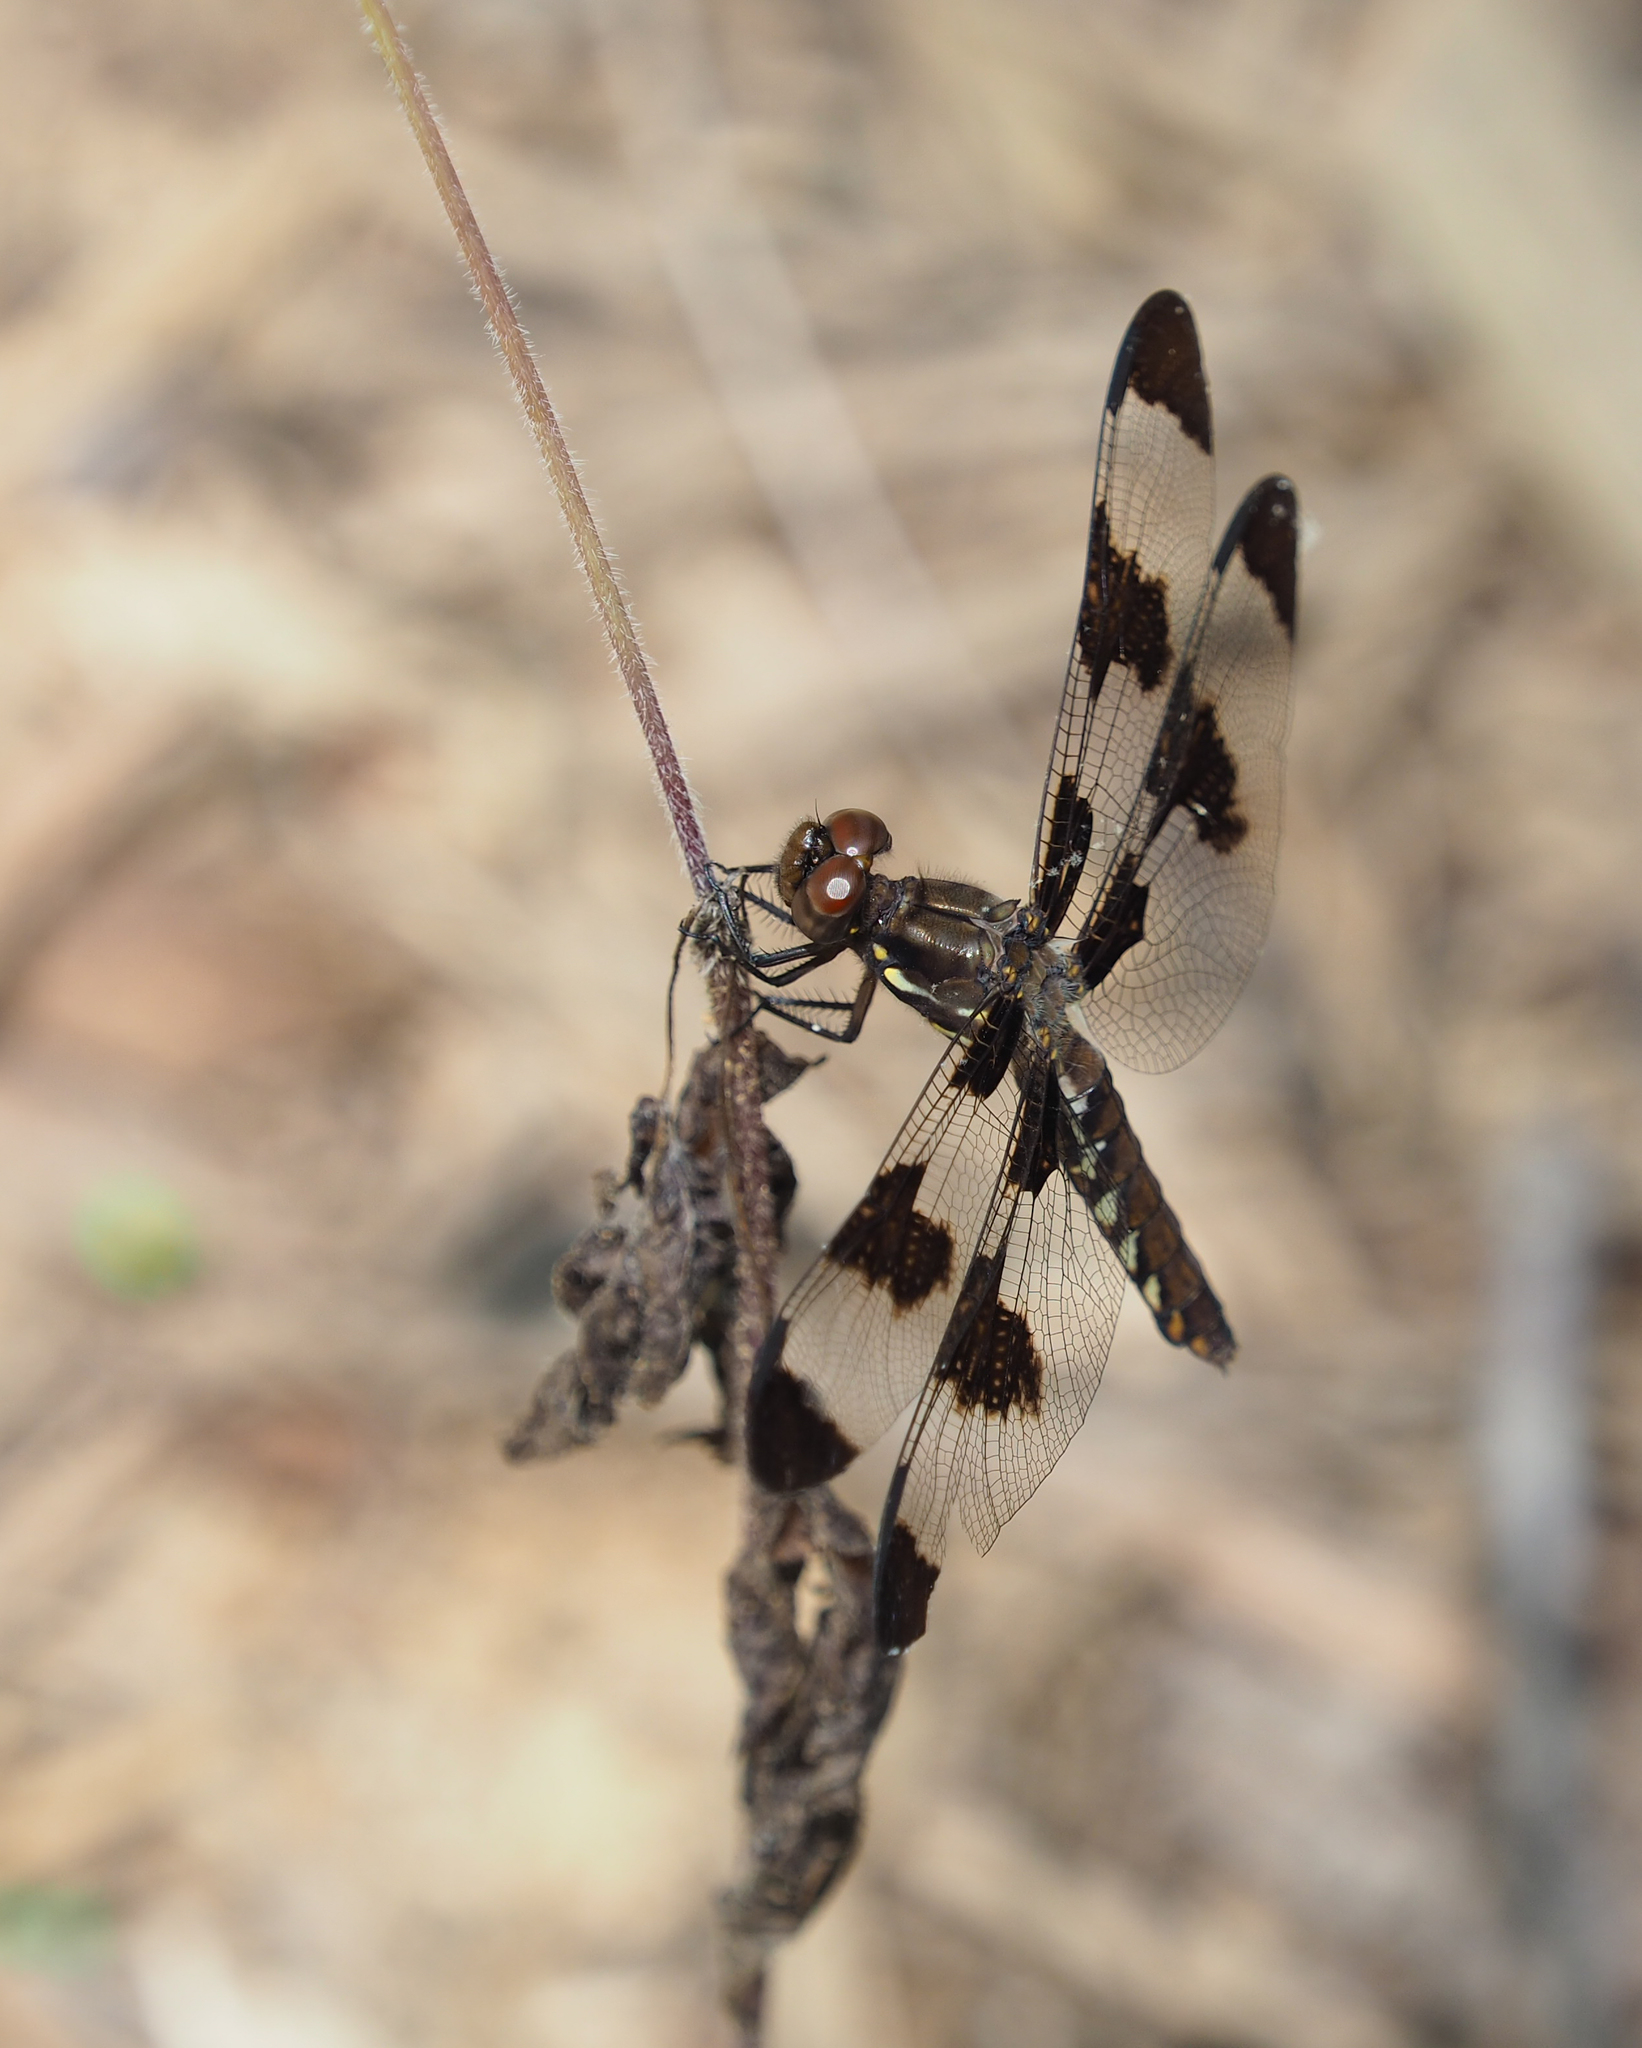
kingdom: Animalia
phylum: Arthropoda
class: Insecta
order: Odonata
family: Libellulidae
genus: Plathemis
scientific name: Plathemis lydia
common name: Common whitetail
